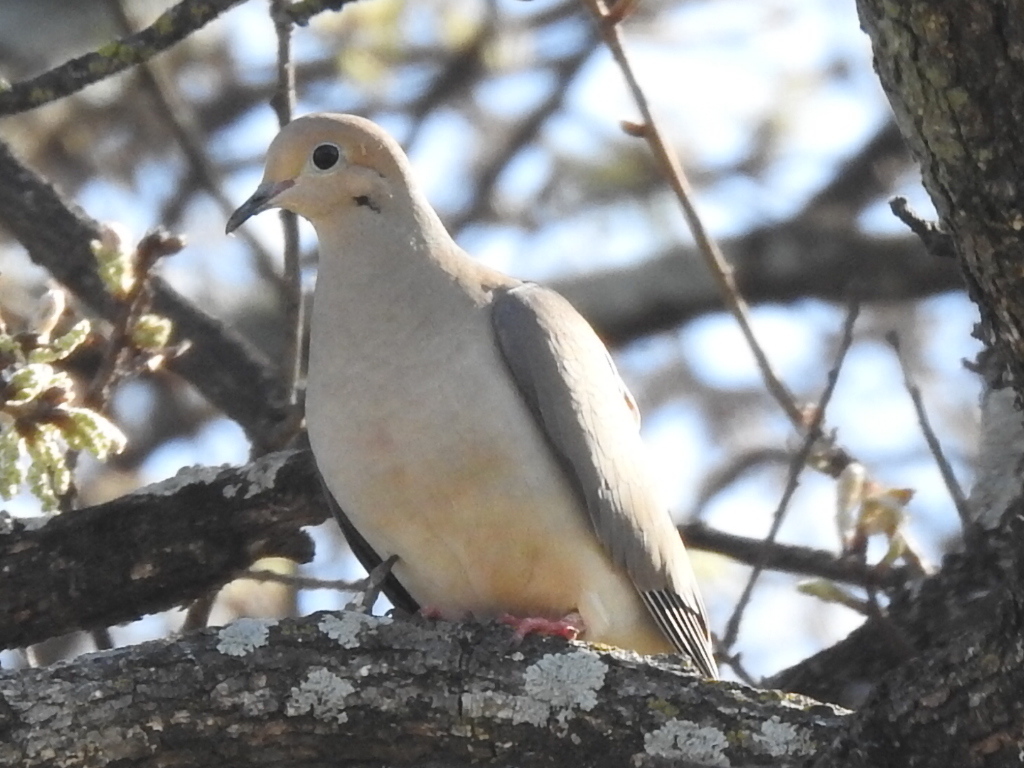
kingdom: Animalia
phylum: Chordata
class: Aves
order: Columbiformes
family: Columbidae
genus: Zenaida
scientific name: Zenaida macroura
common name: Mourning dove
